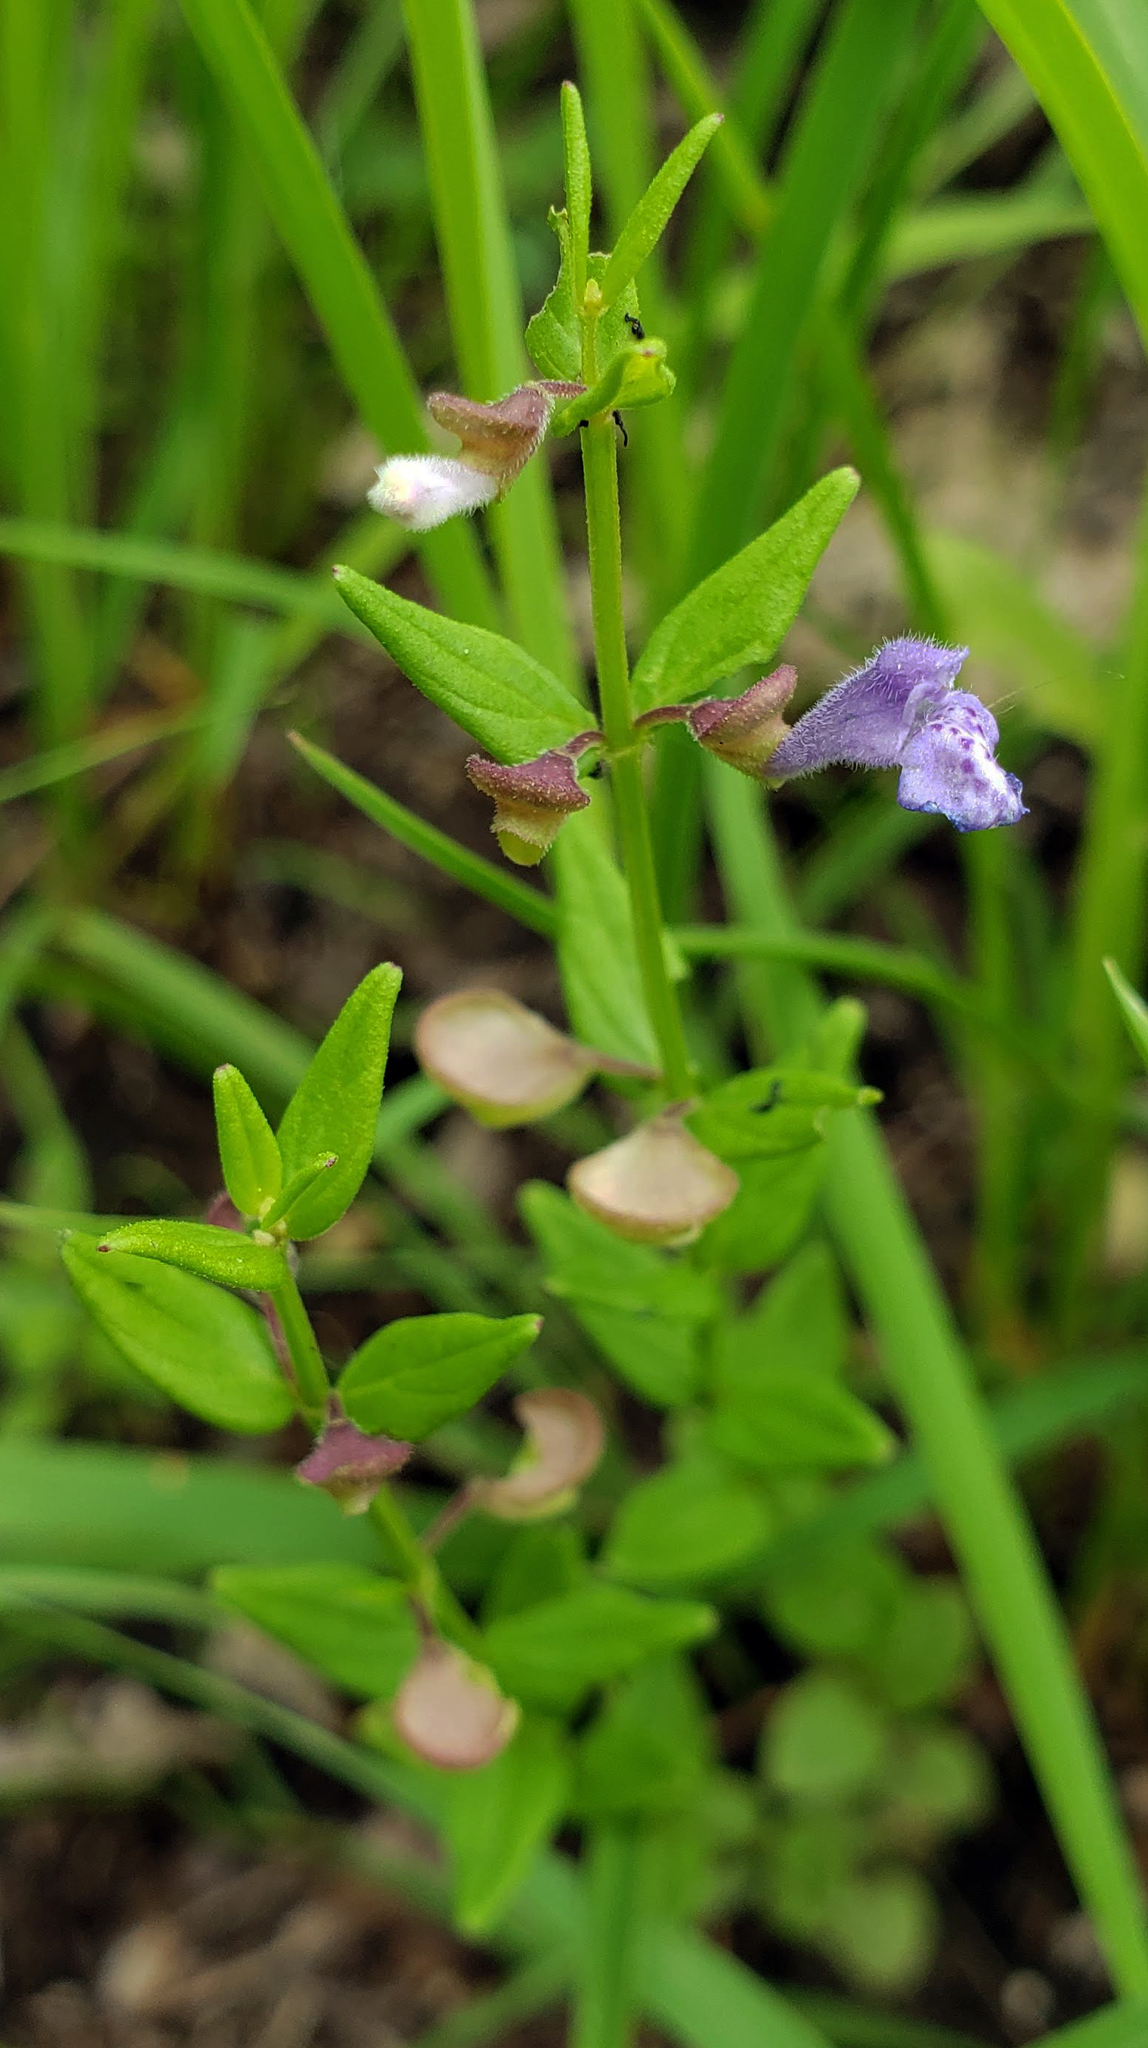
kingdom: Plantae
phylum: Tracheophyta
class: Magnoliopsida
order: Lamiales
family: Lamiaceae
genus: Scutellaria
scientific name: Scutellaria parvula
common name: Little scullcap
